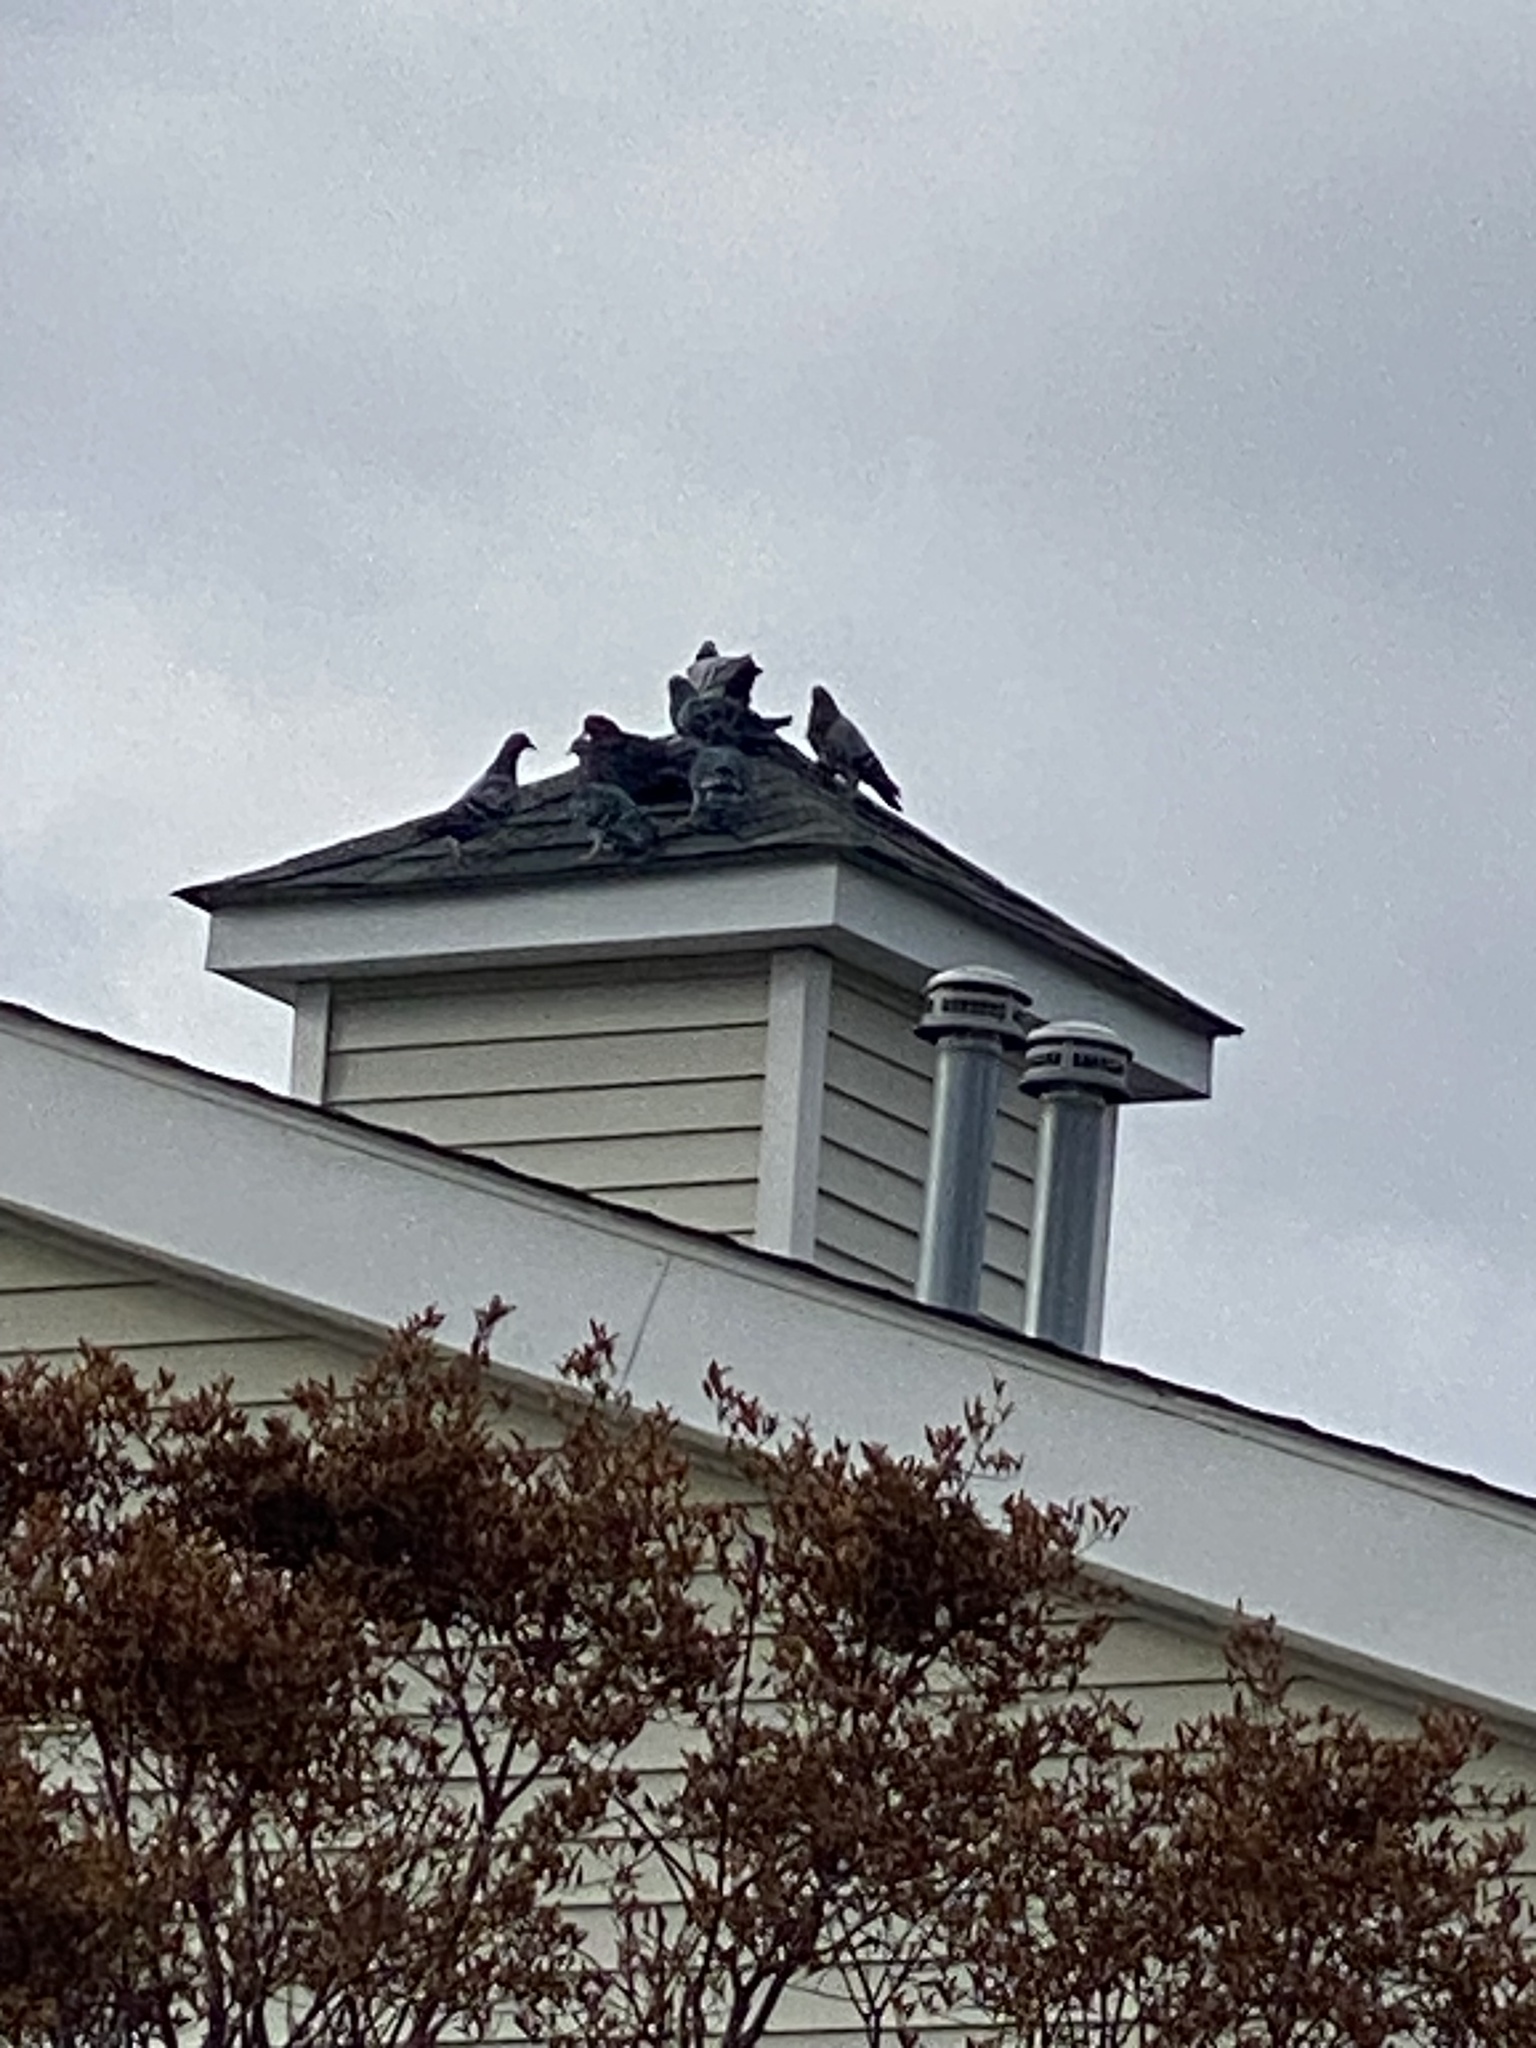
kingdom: Animalia
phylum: Chordata
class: Aves
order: Columbiformes
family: Columbidae
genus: Columba
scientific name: Columba livia
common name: Rock pigeon
